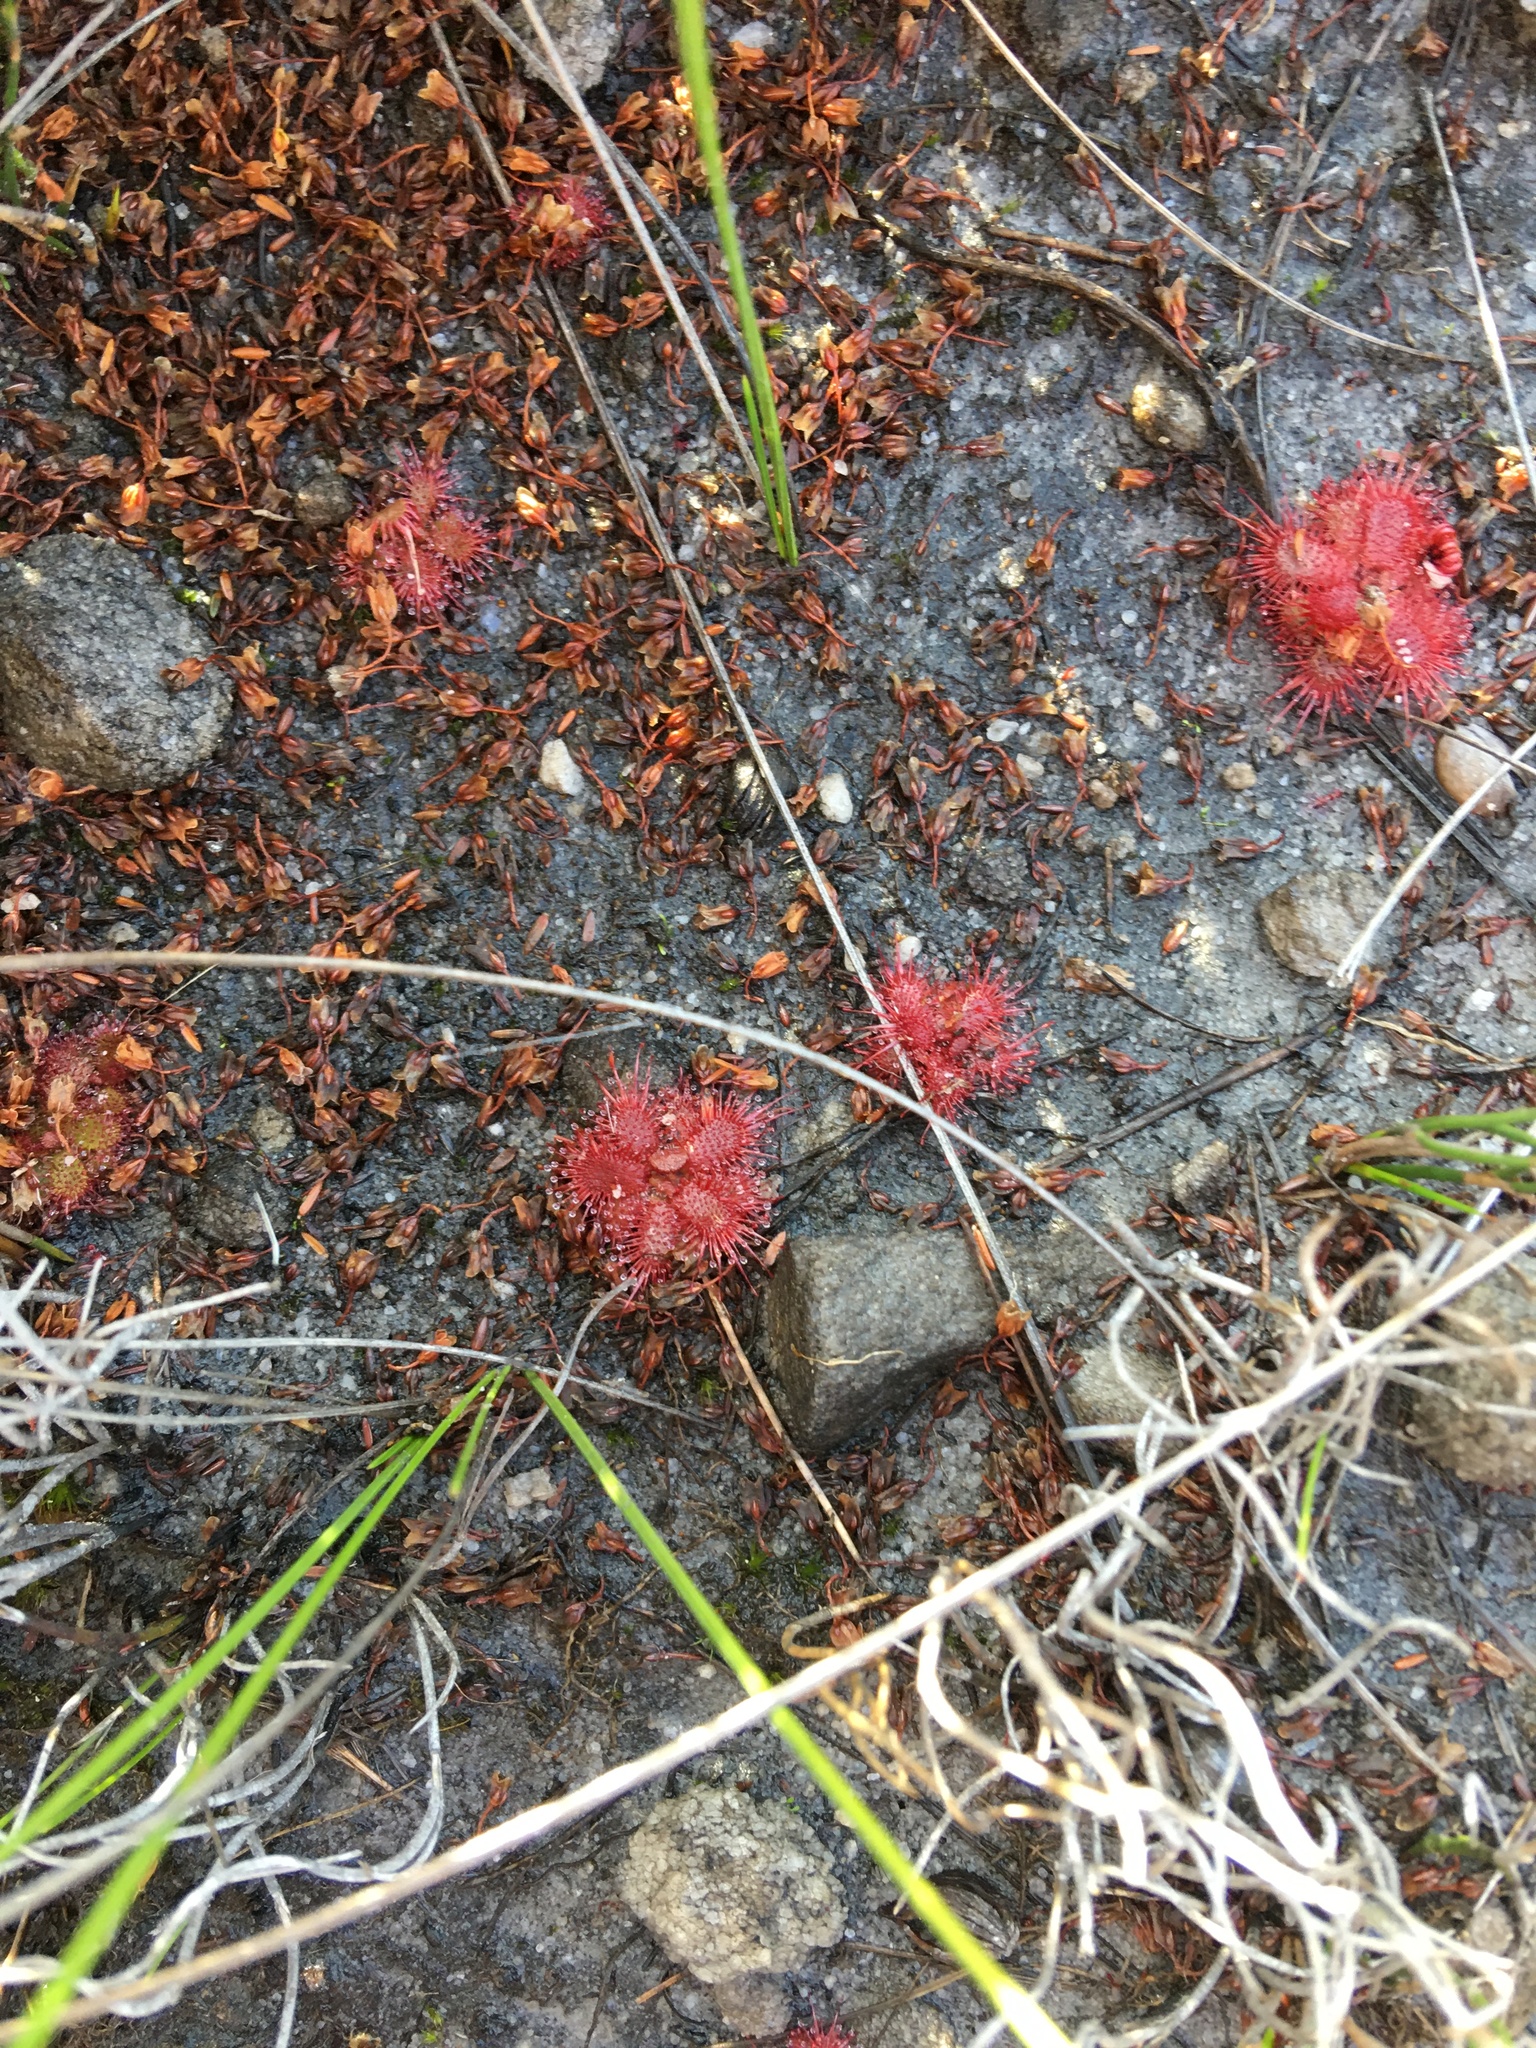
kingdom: Plantae
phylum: Tracheophyta
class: Magnoliopsida
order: Caryophyllales
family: Droseraceae
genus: Drosera
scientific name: Drosera trinervia
